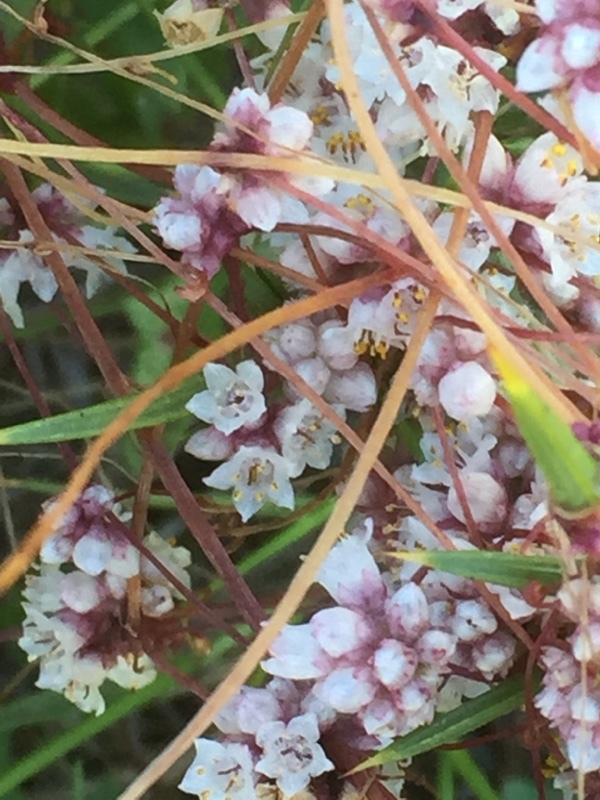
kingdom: Plantae
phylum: Tracheophyta
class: Magnoliopsida
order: Solanales
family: Convolvulaceae
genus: Cuscuta
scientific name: Cuscuta epithymum
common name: Clover dodder
